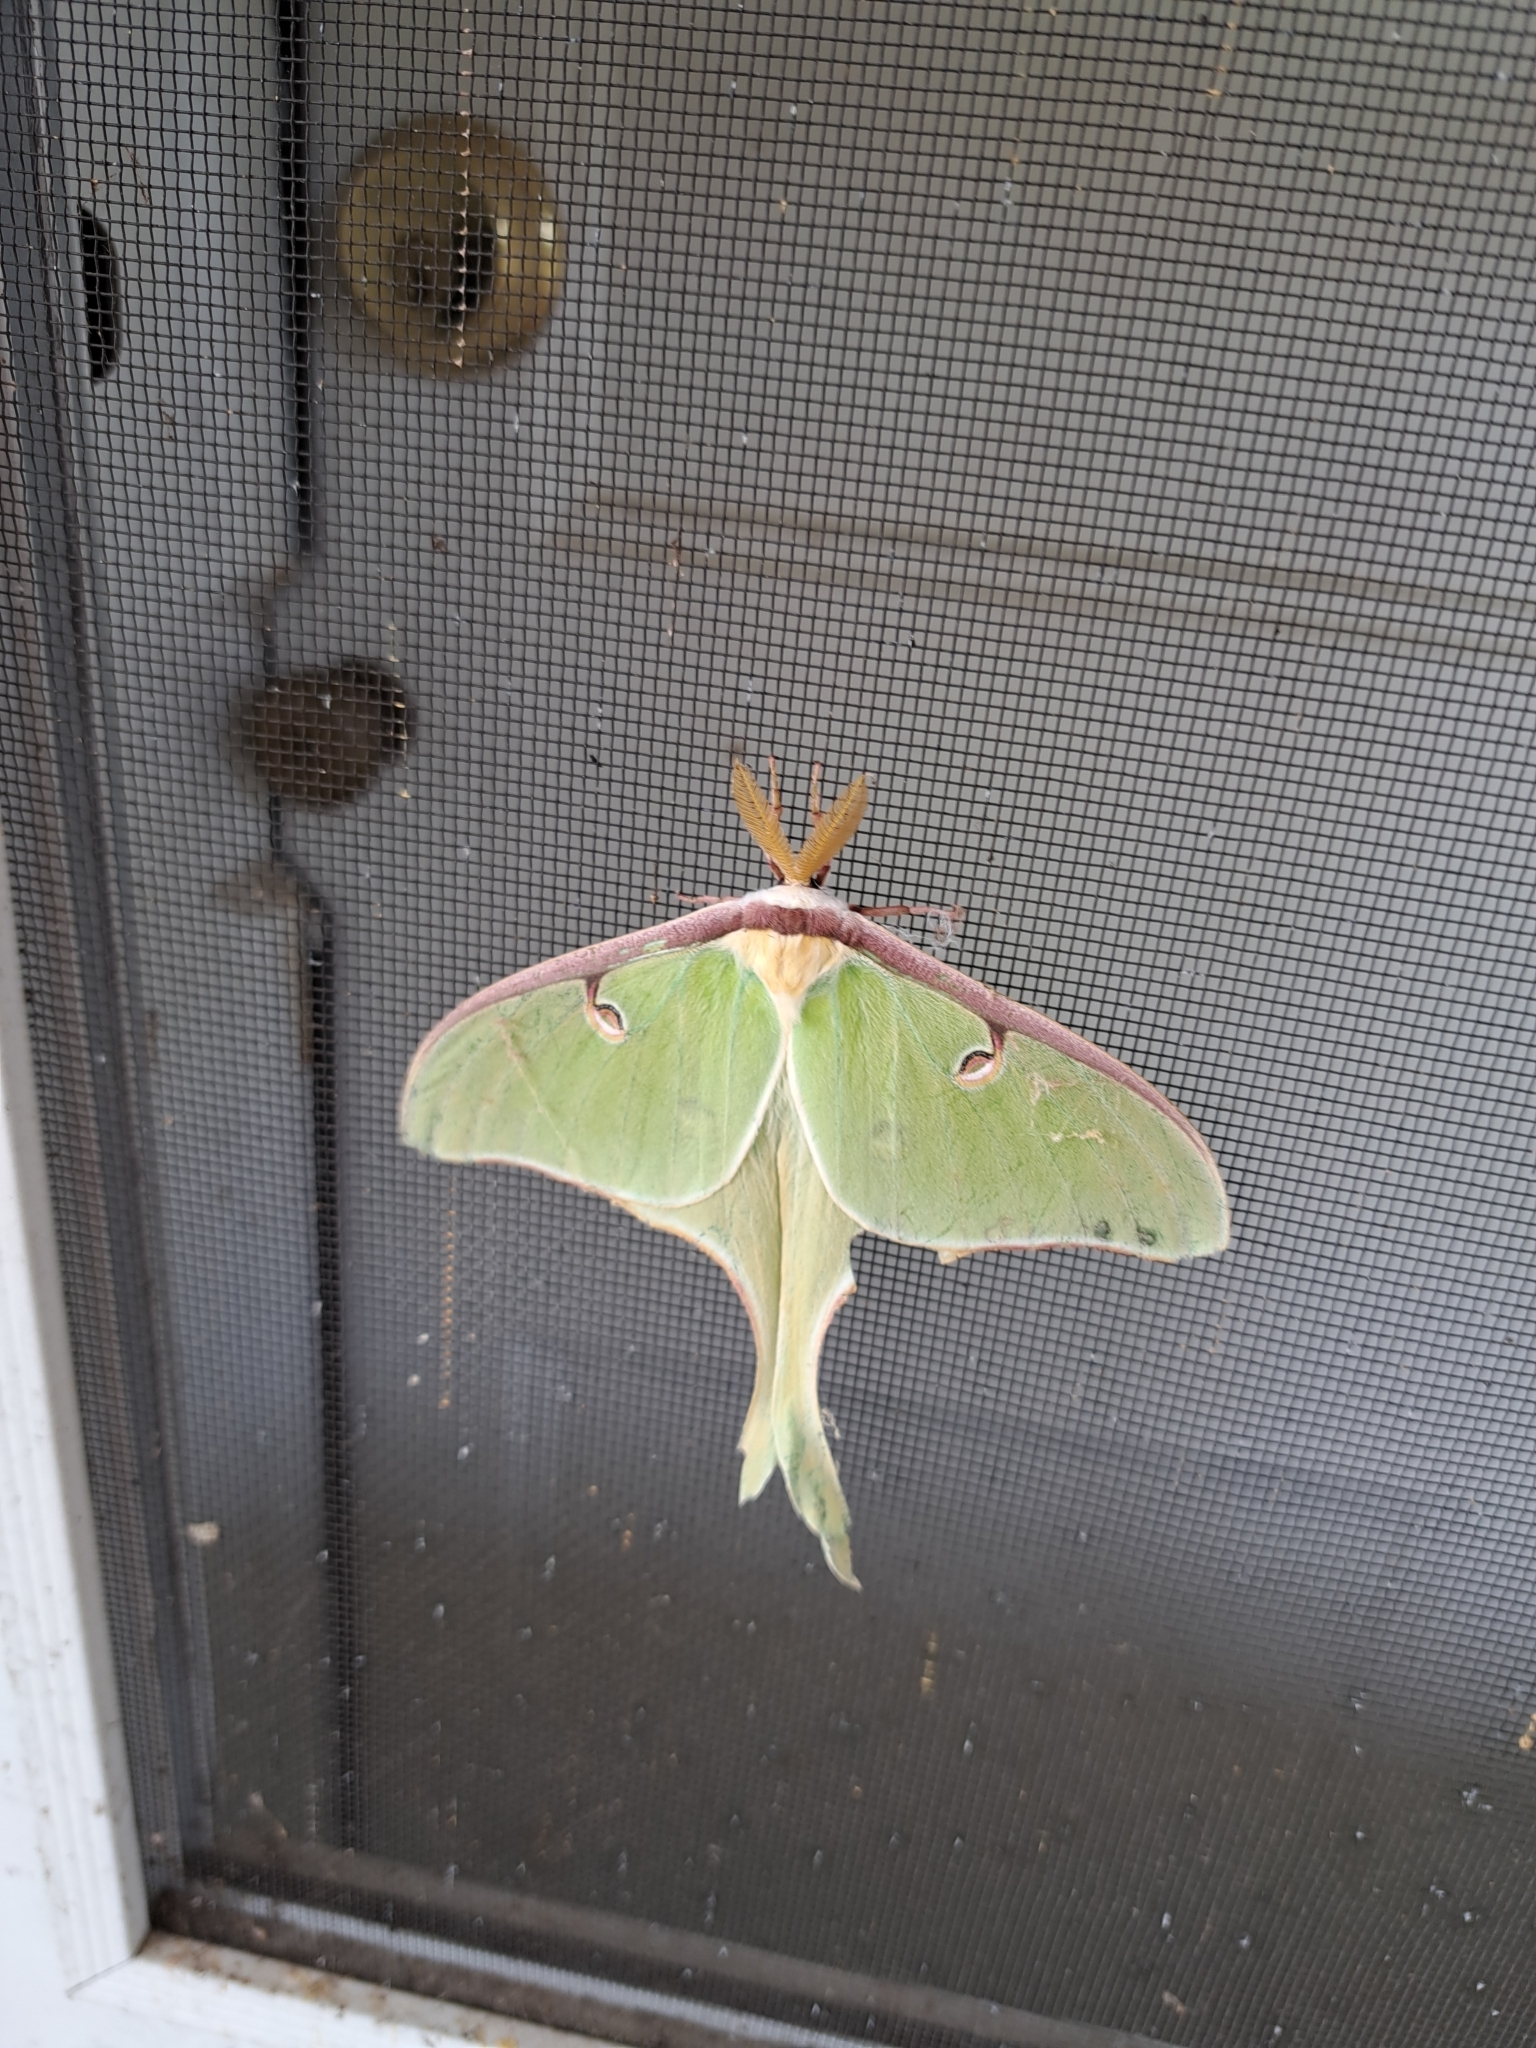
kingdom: Animalia
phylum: Arthropoda
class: Insecta
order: Lepidoptera
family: Saturniidae
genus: Actias
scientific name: Actias luna
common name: Luna moth
